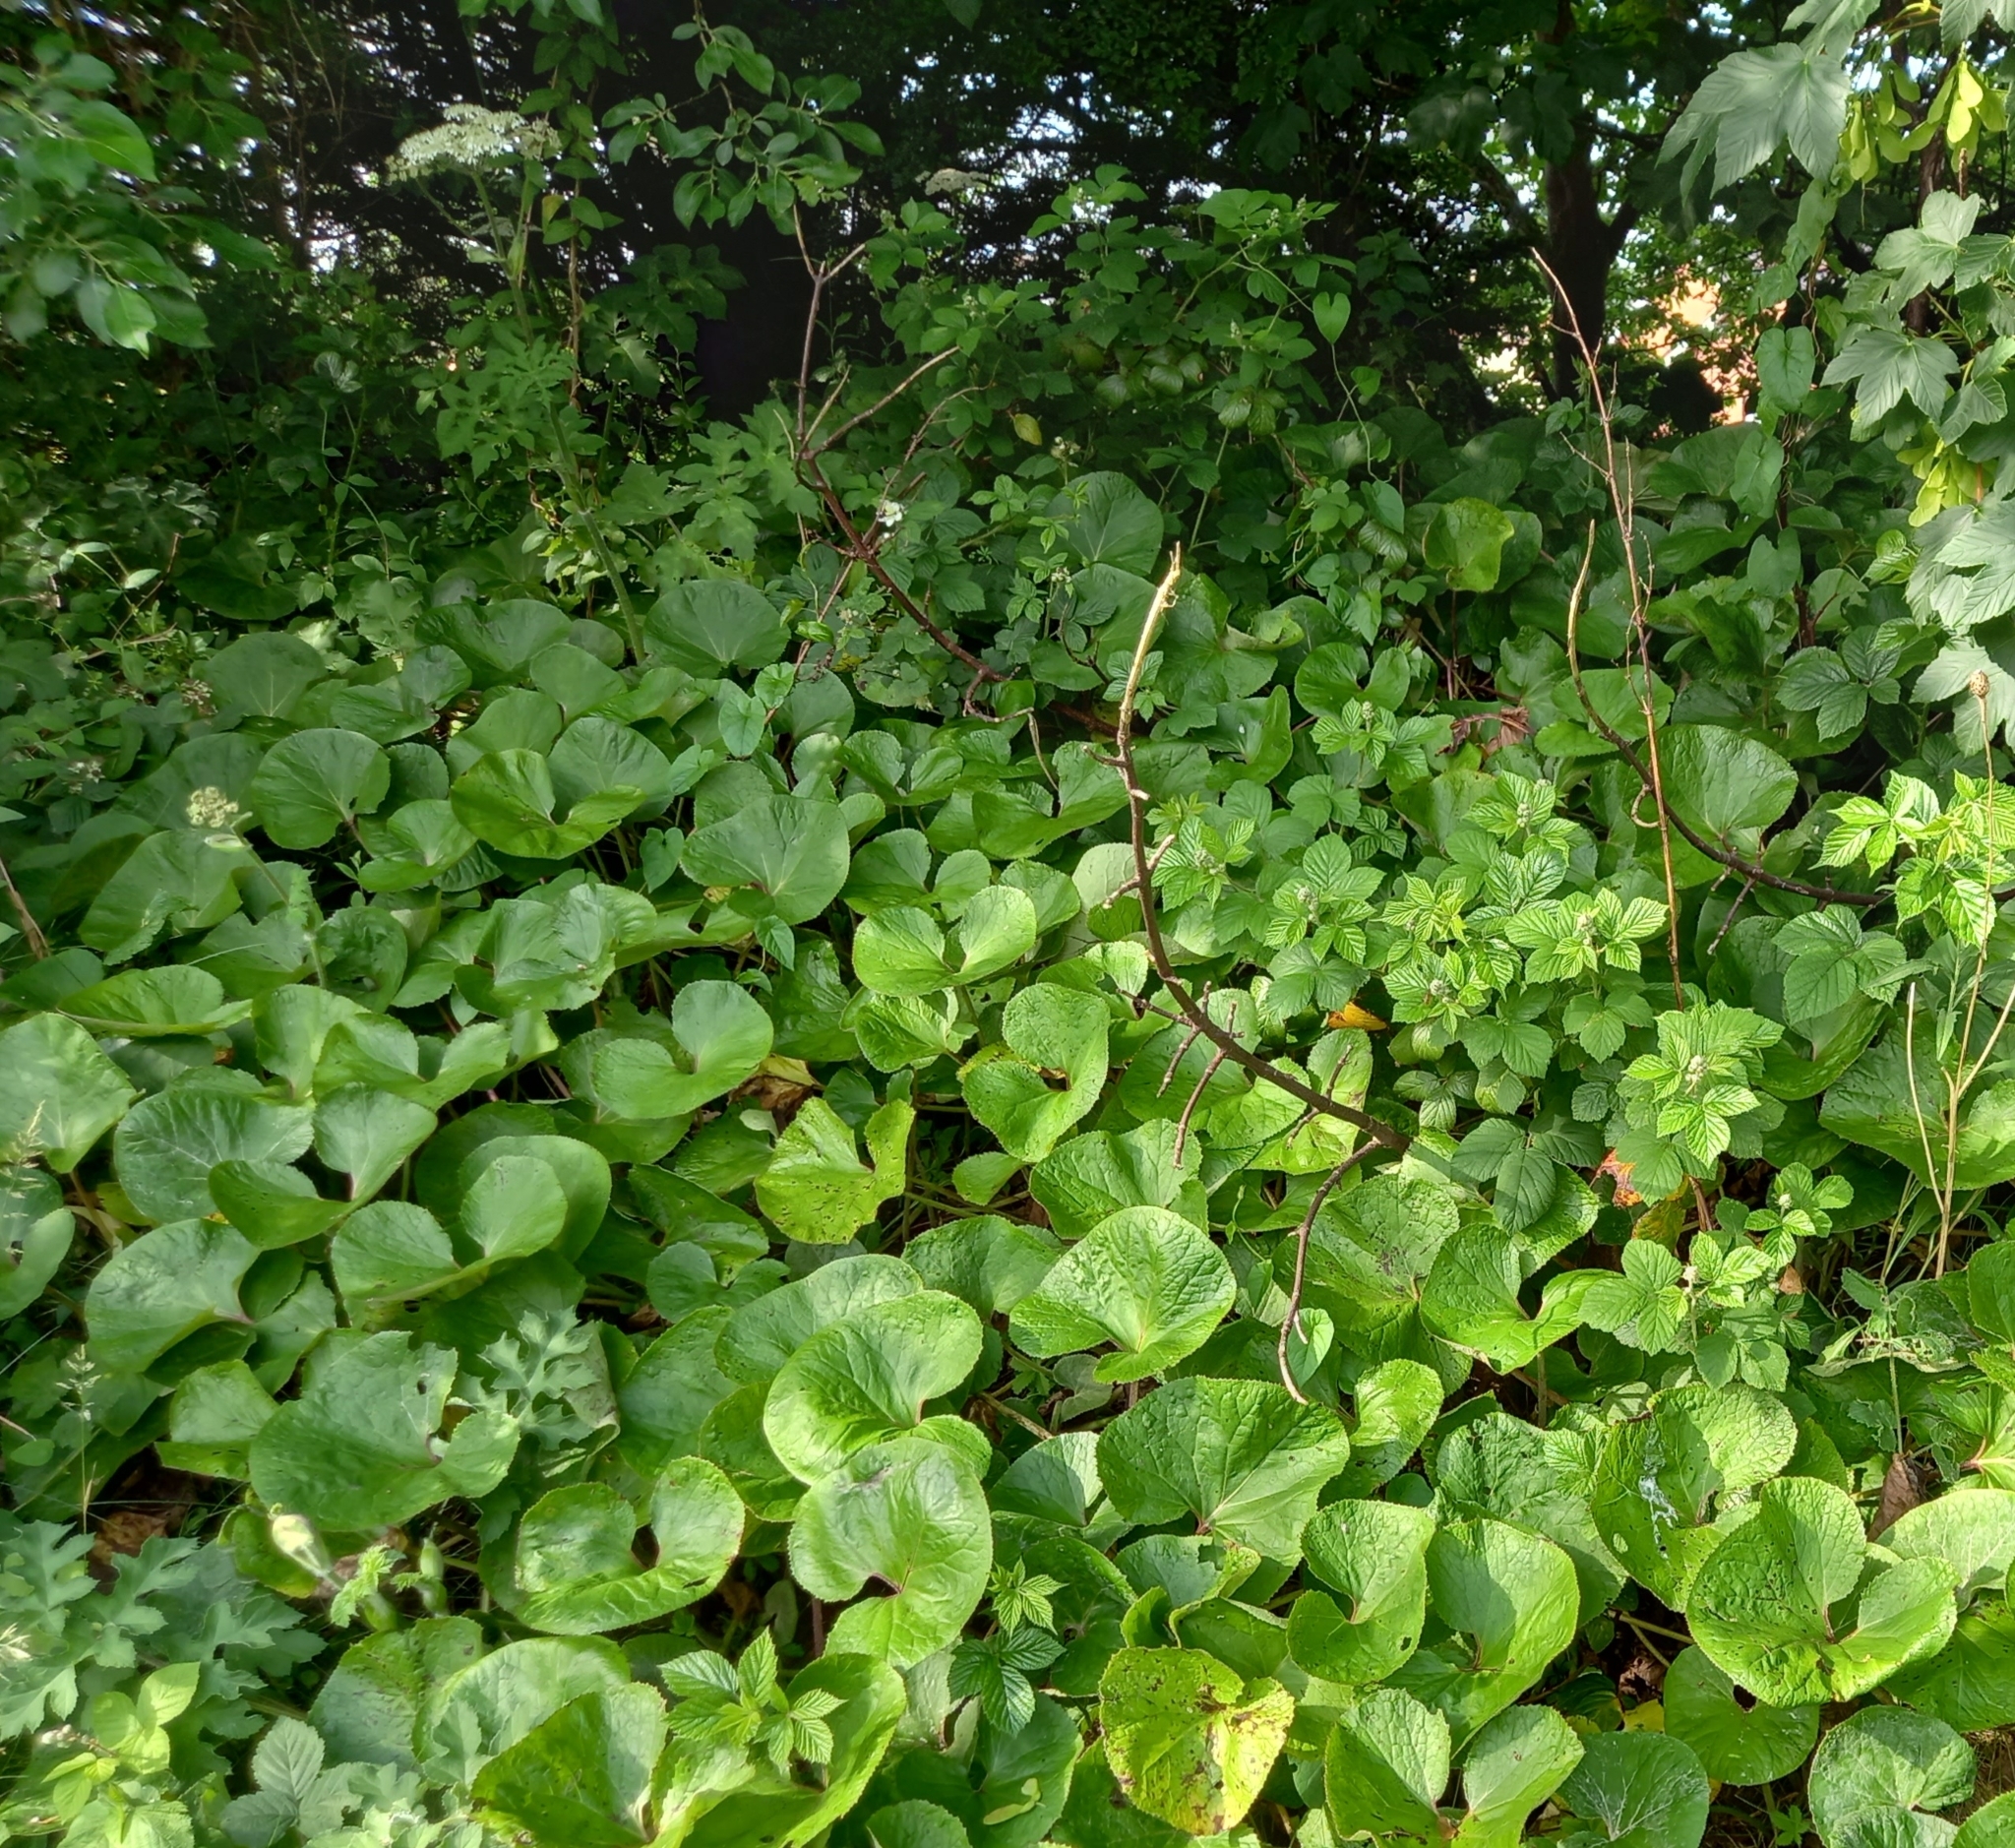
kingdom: Plantae
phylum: Tracheophyta
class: Magnoliopsida
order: Asterales
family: Asteraceae
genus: Petasites
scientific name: Petasites pyrenaicus
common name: Winter heliotrope
